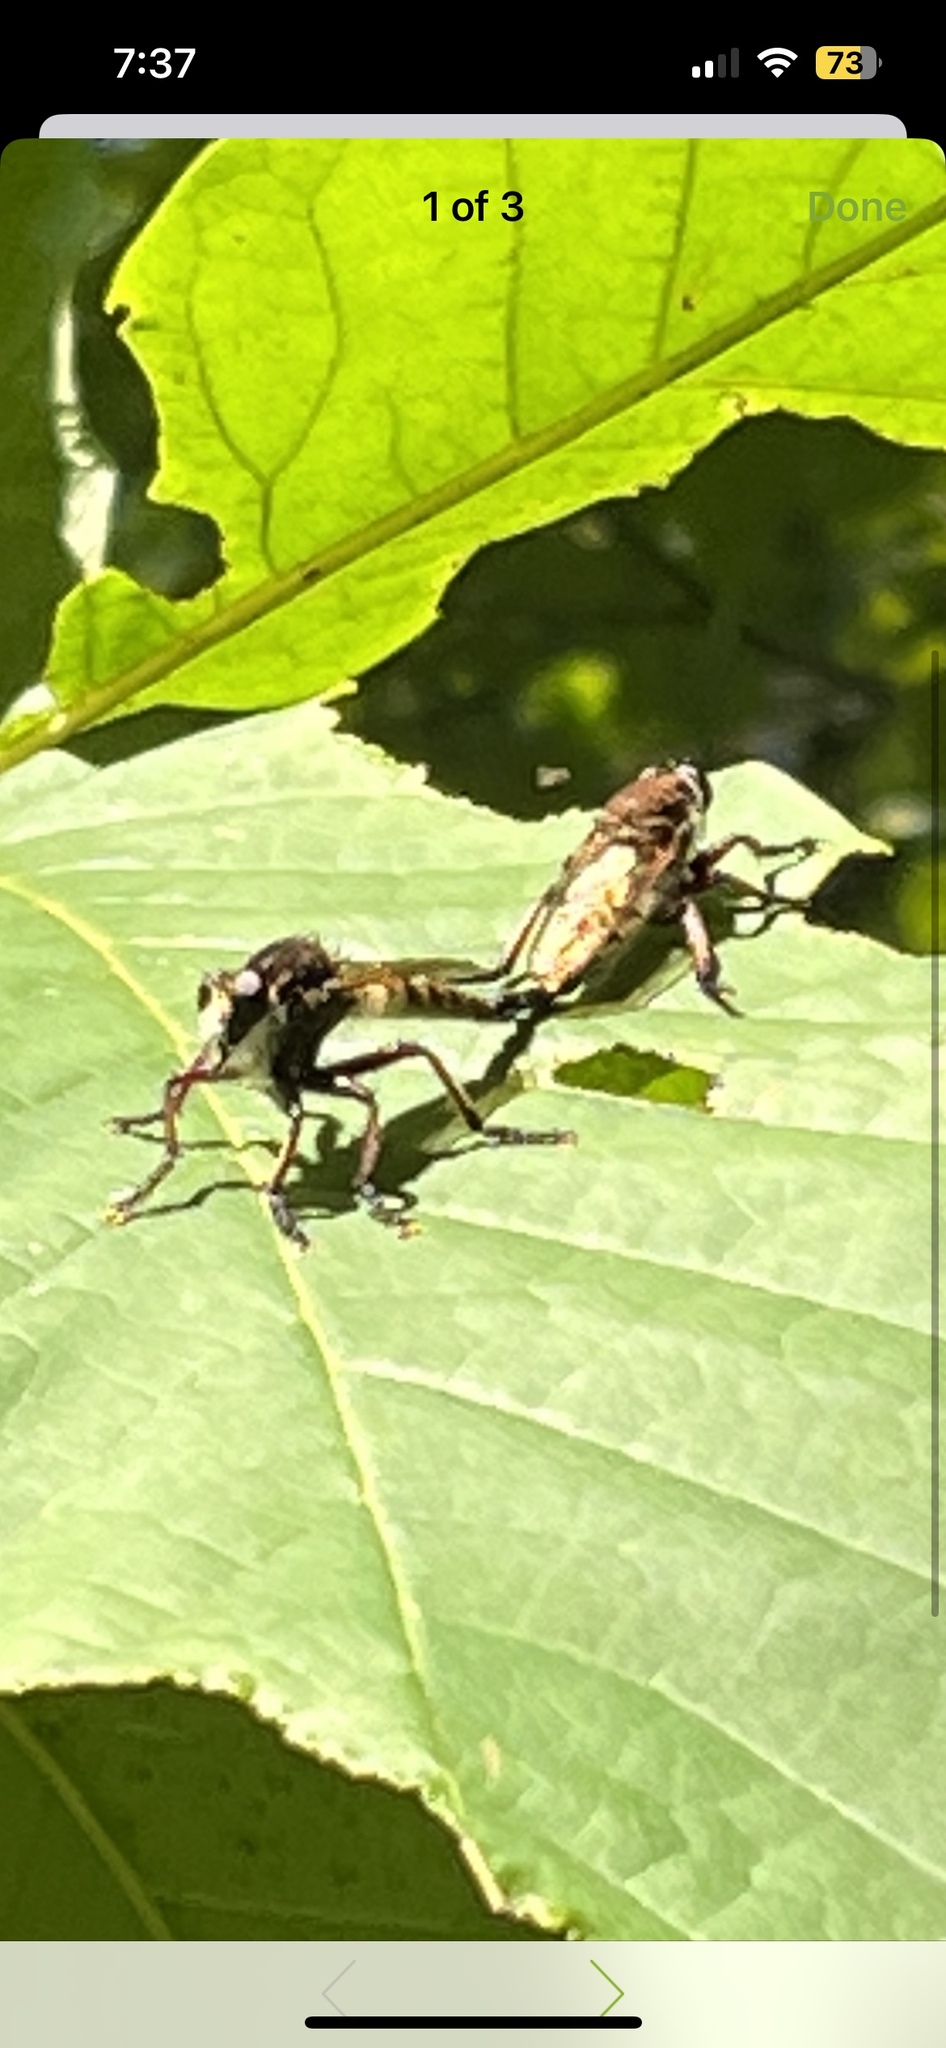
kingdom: Animalia
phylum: Arthropoda
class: Insecta
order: Diptera
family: Asilidae
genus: Promachus
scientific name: Promachus hinei
